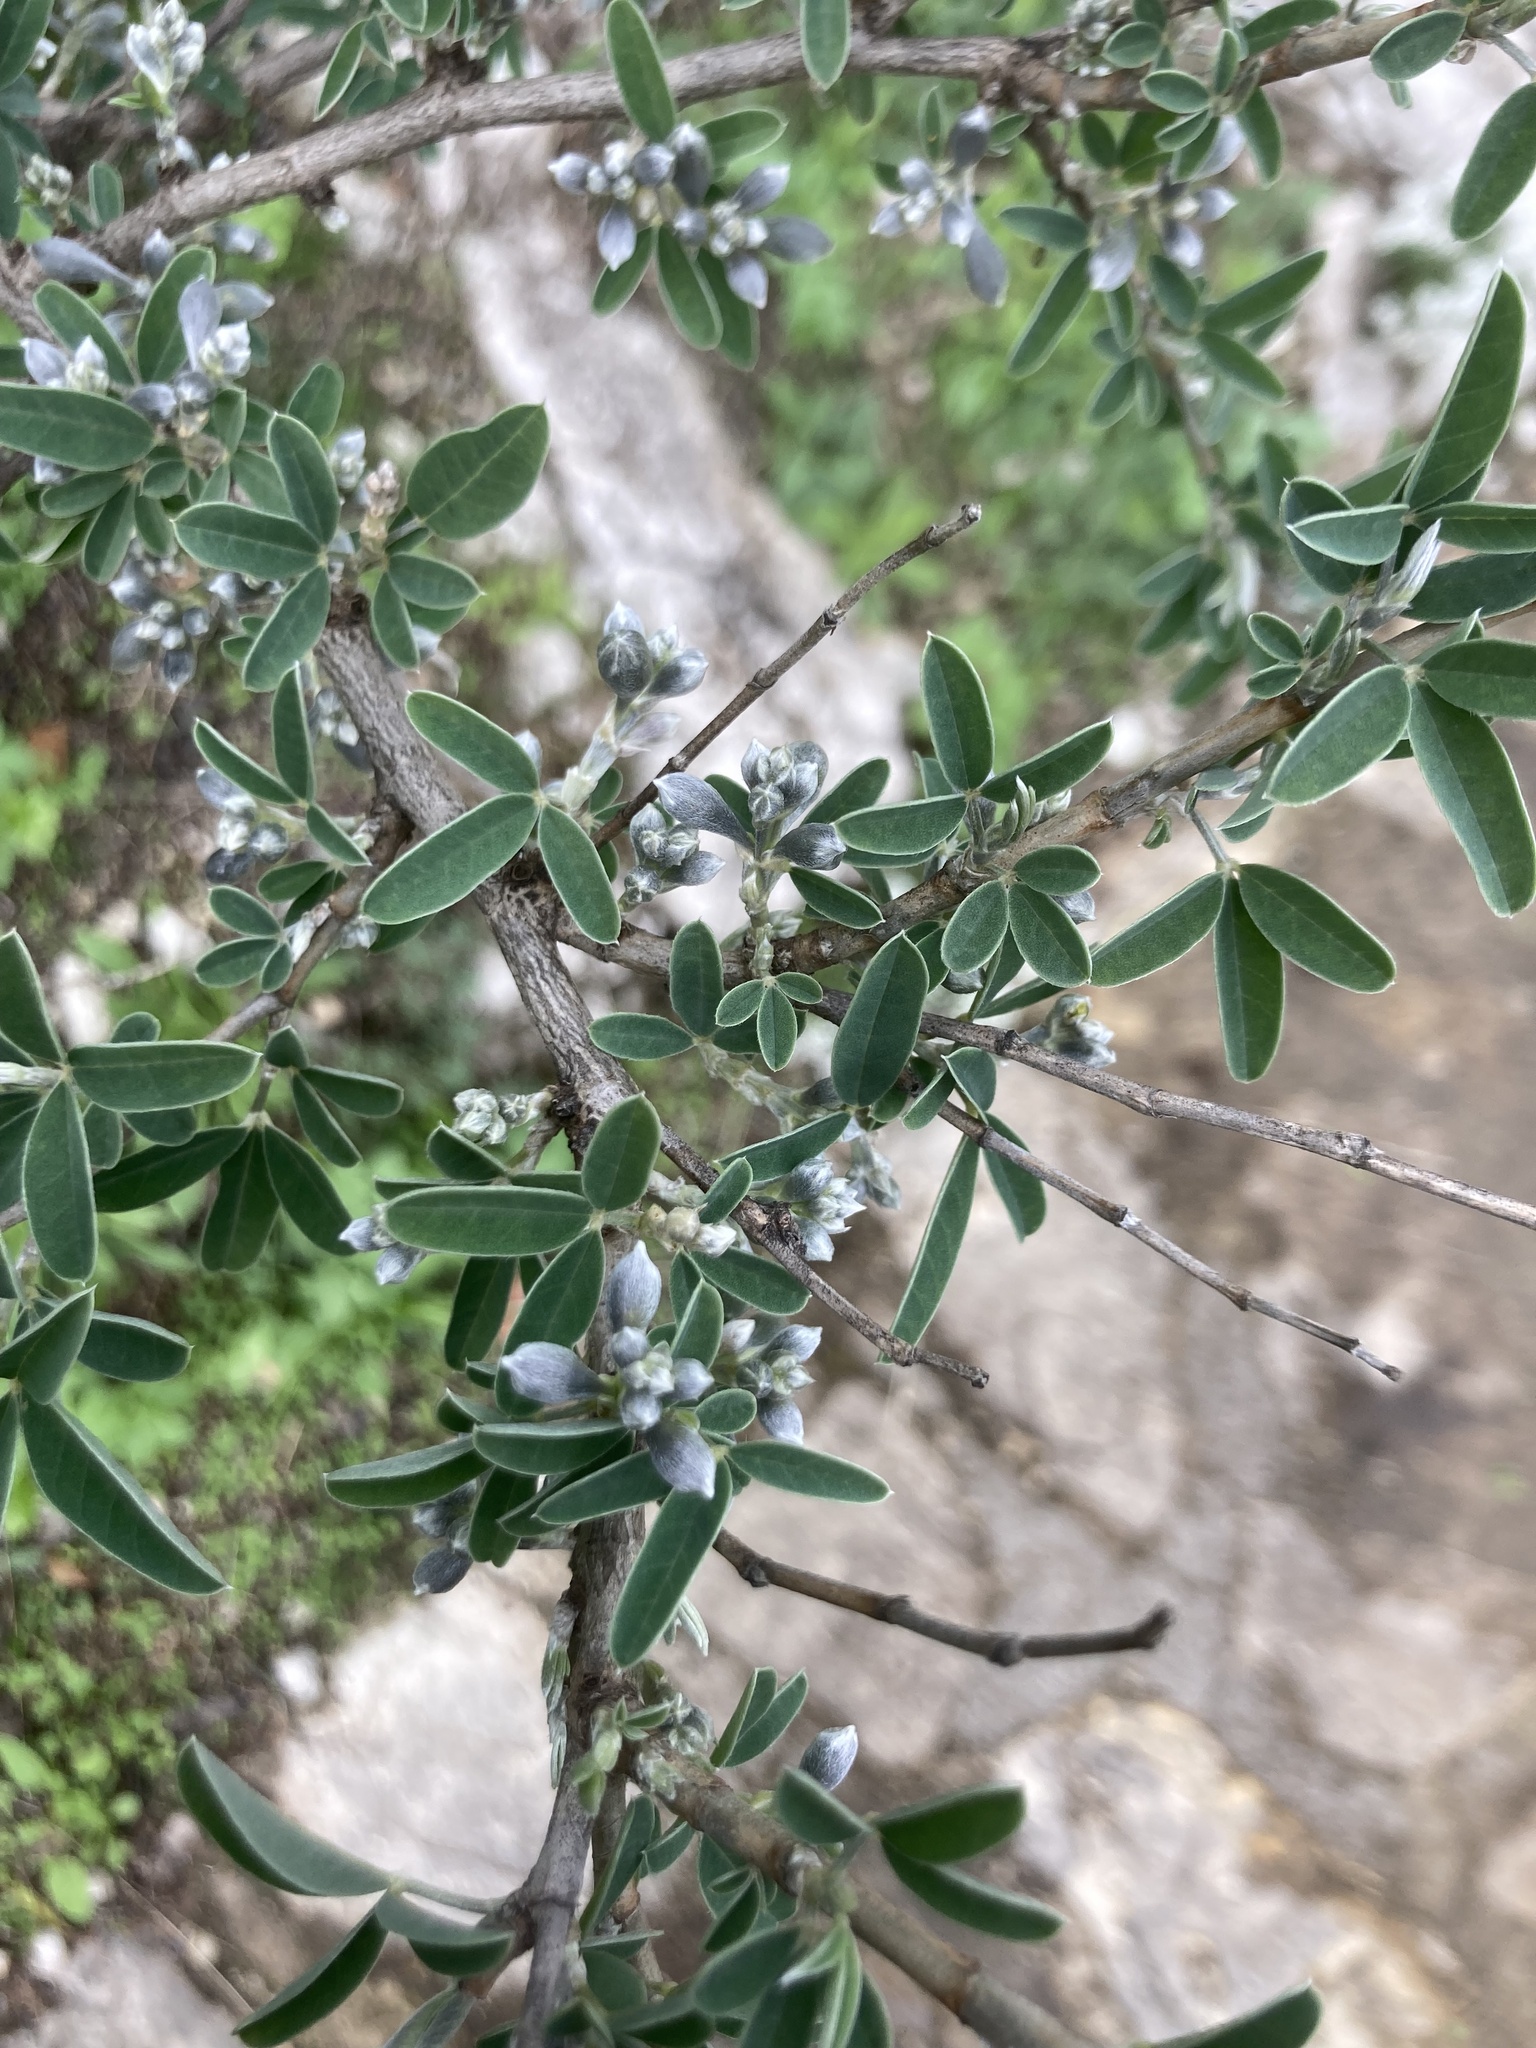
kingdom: Plantae
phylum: Tracheophyta
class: Magnoliopsida
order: Fabales
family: Fabaceae
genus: Anagyris
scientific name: Anagyris foetida
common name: Stinking bean trefoil
